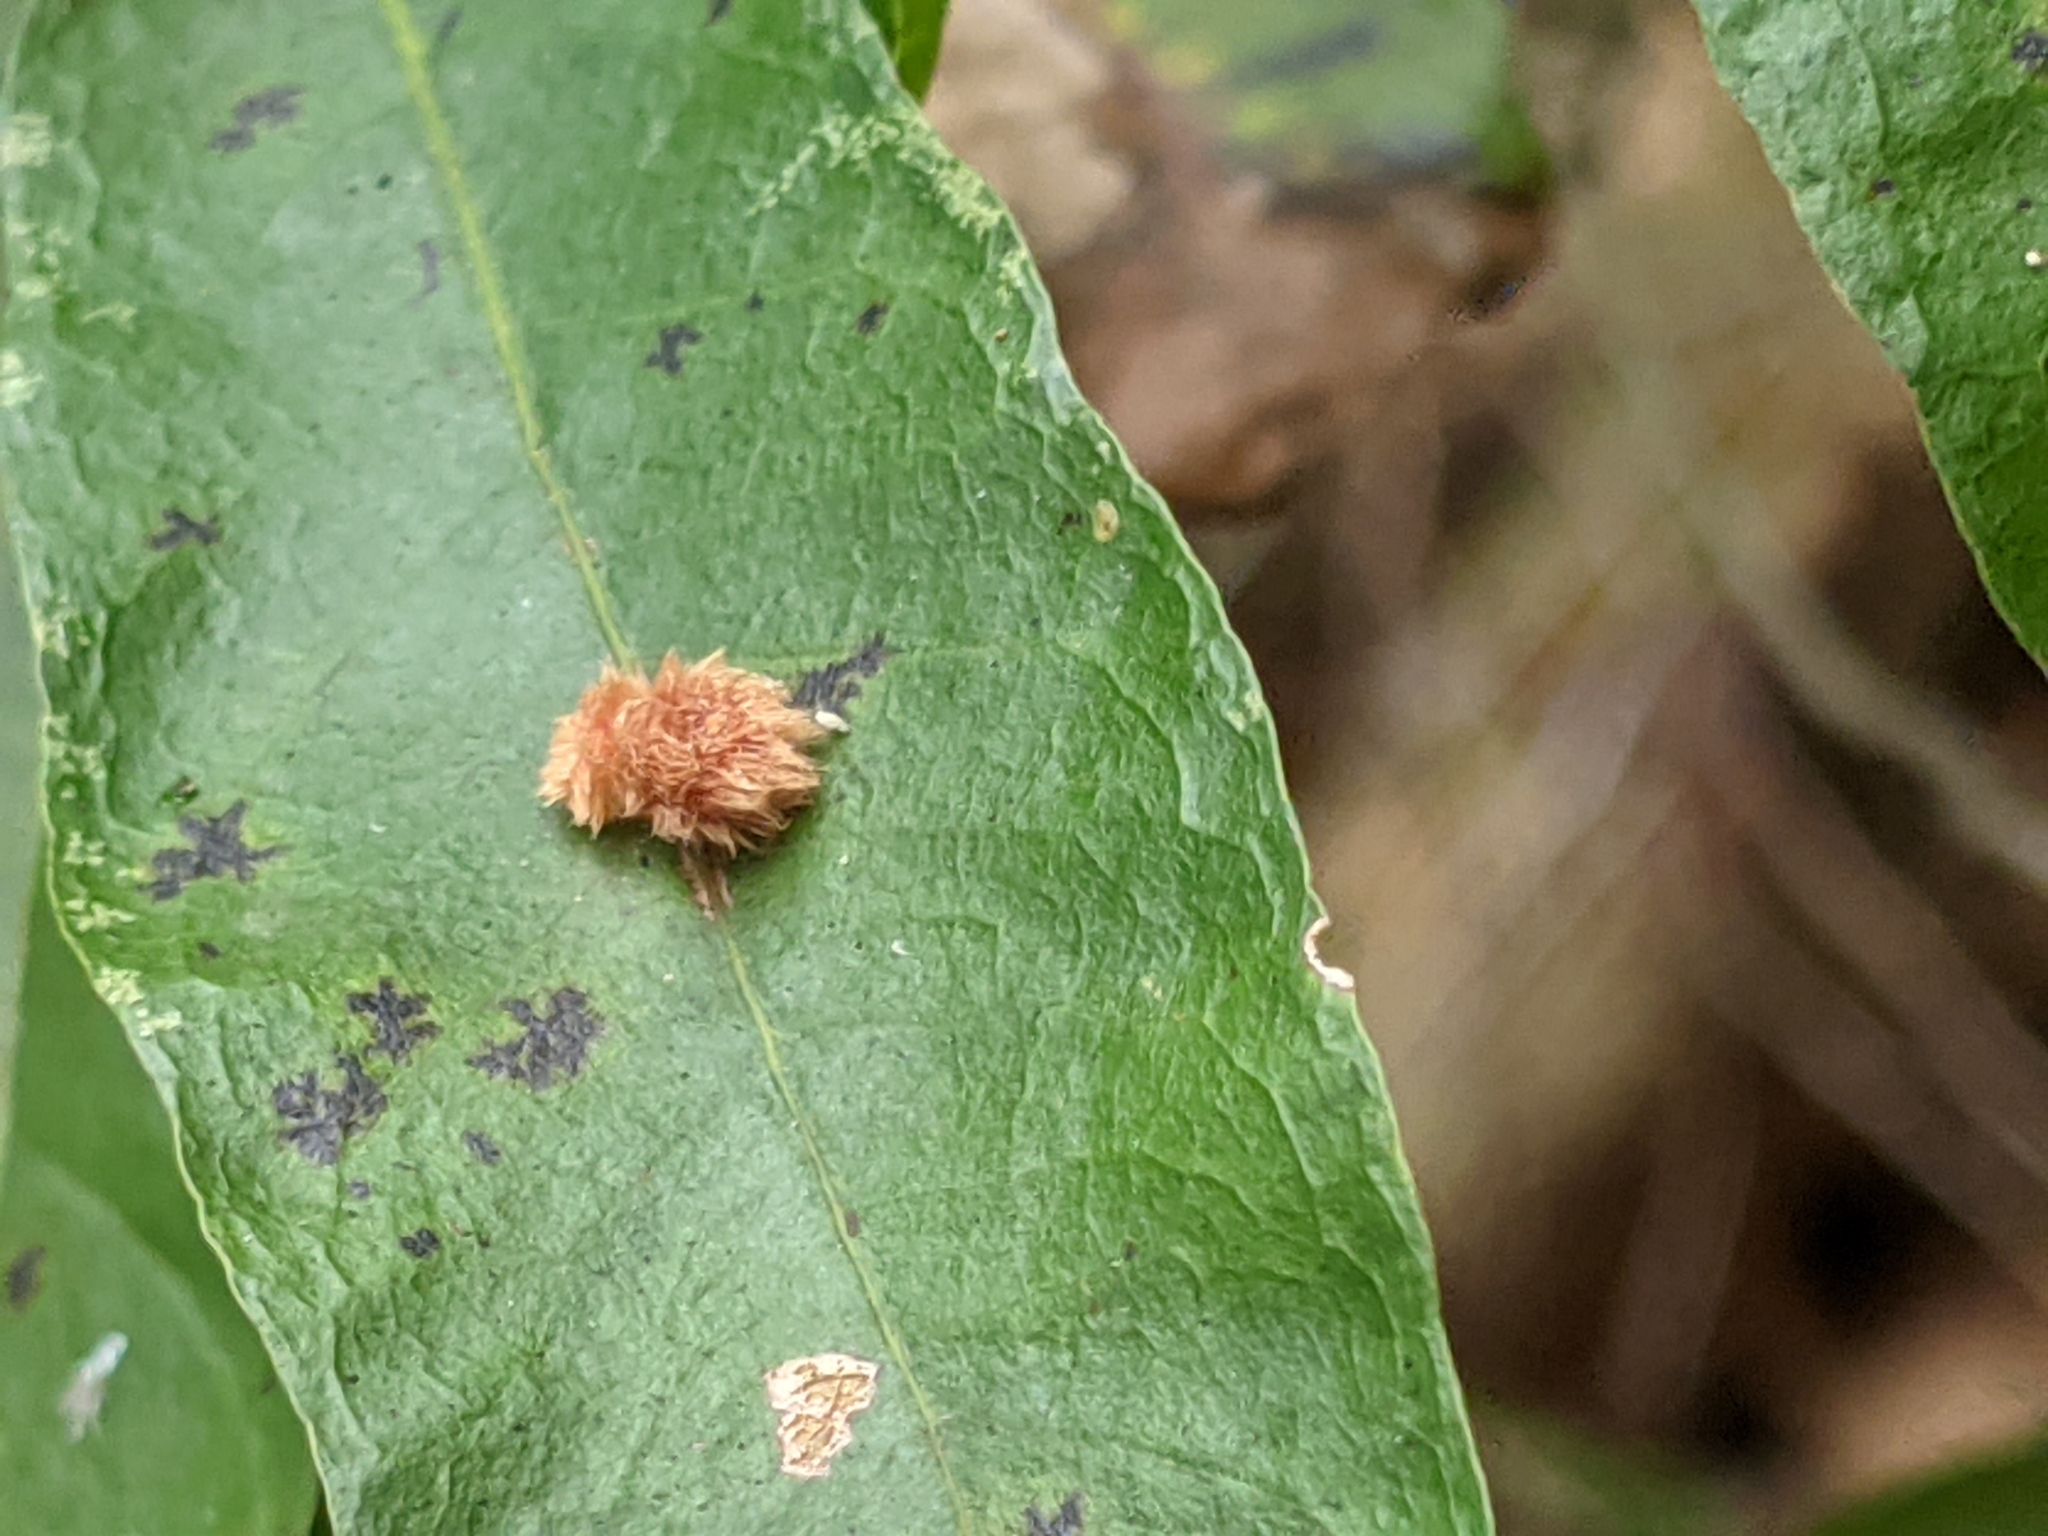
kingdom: Animalia
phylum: Arthropoda
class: Insecta
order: Hymenoptera
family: Cynipidae
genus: Callirhytis
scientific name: Callirhytis
